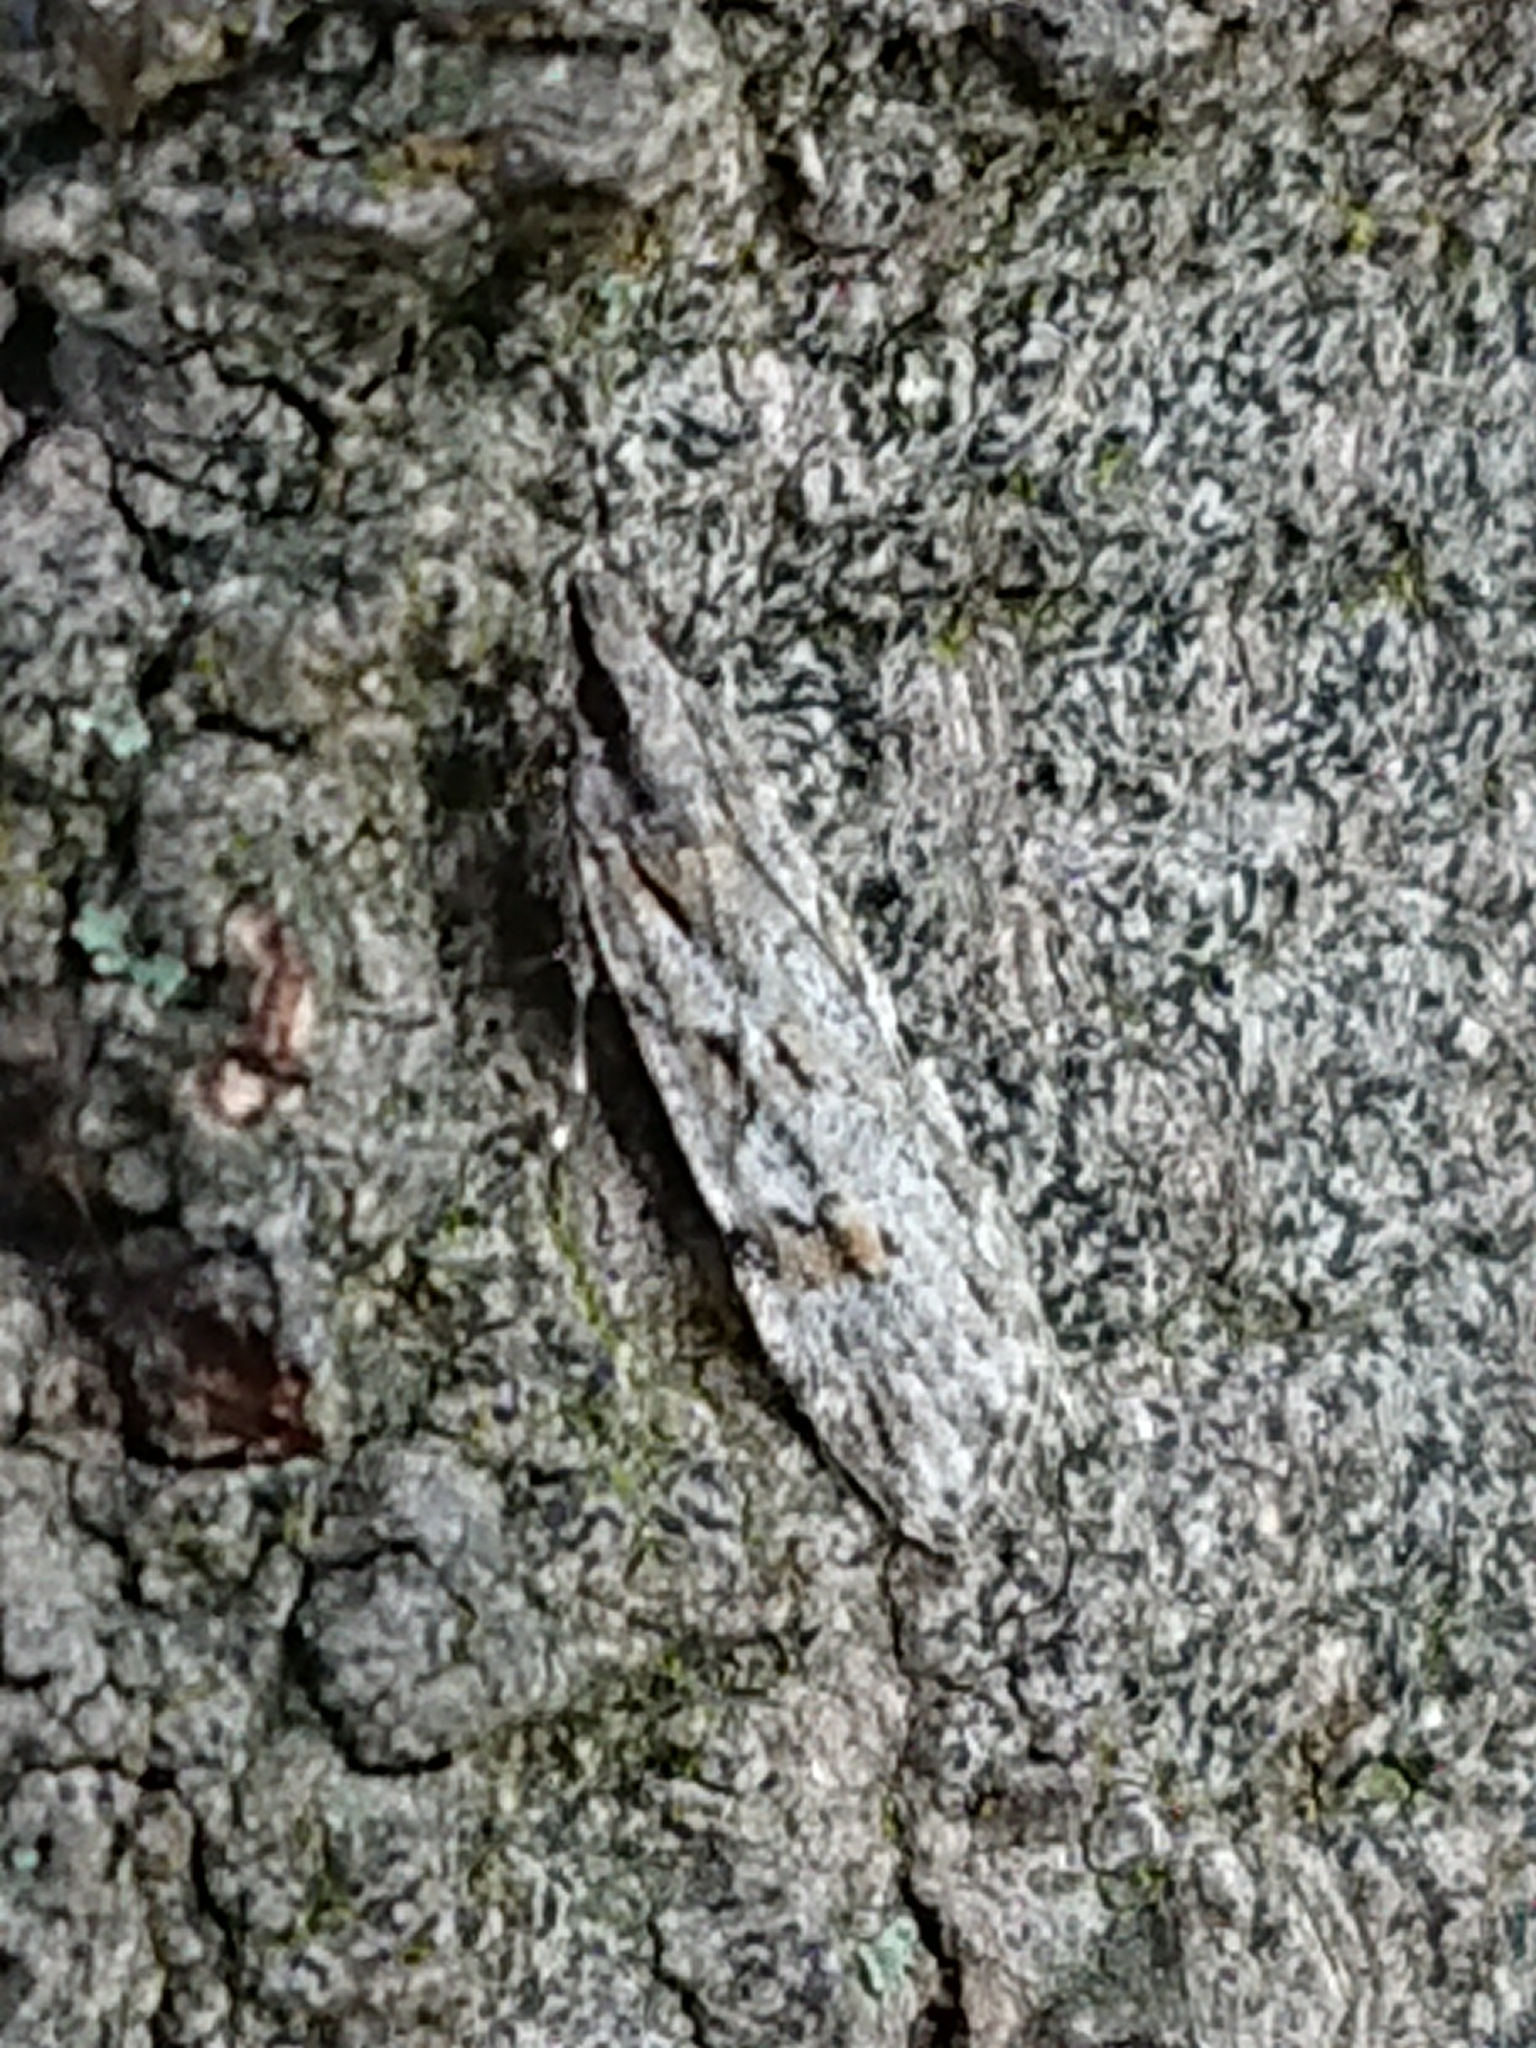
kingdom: Animalia
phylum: Arthropoda
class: Insecta
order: Lepidoptera
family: Crambidae
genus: Scoparia
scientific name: Scoparia chalicodes
